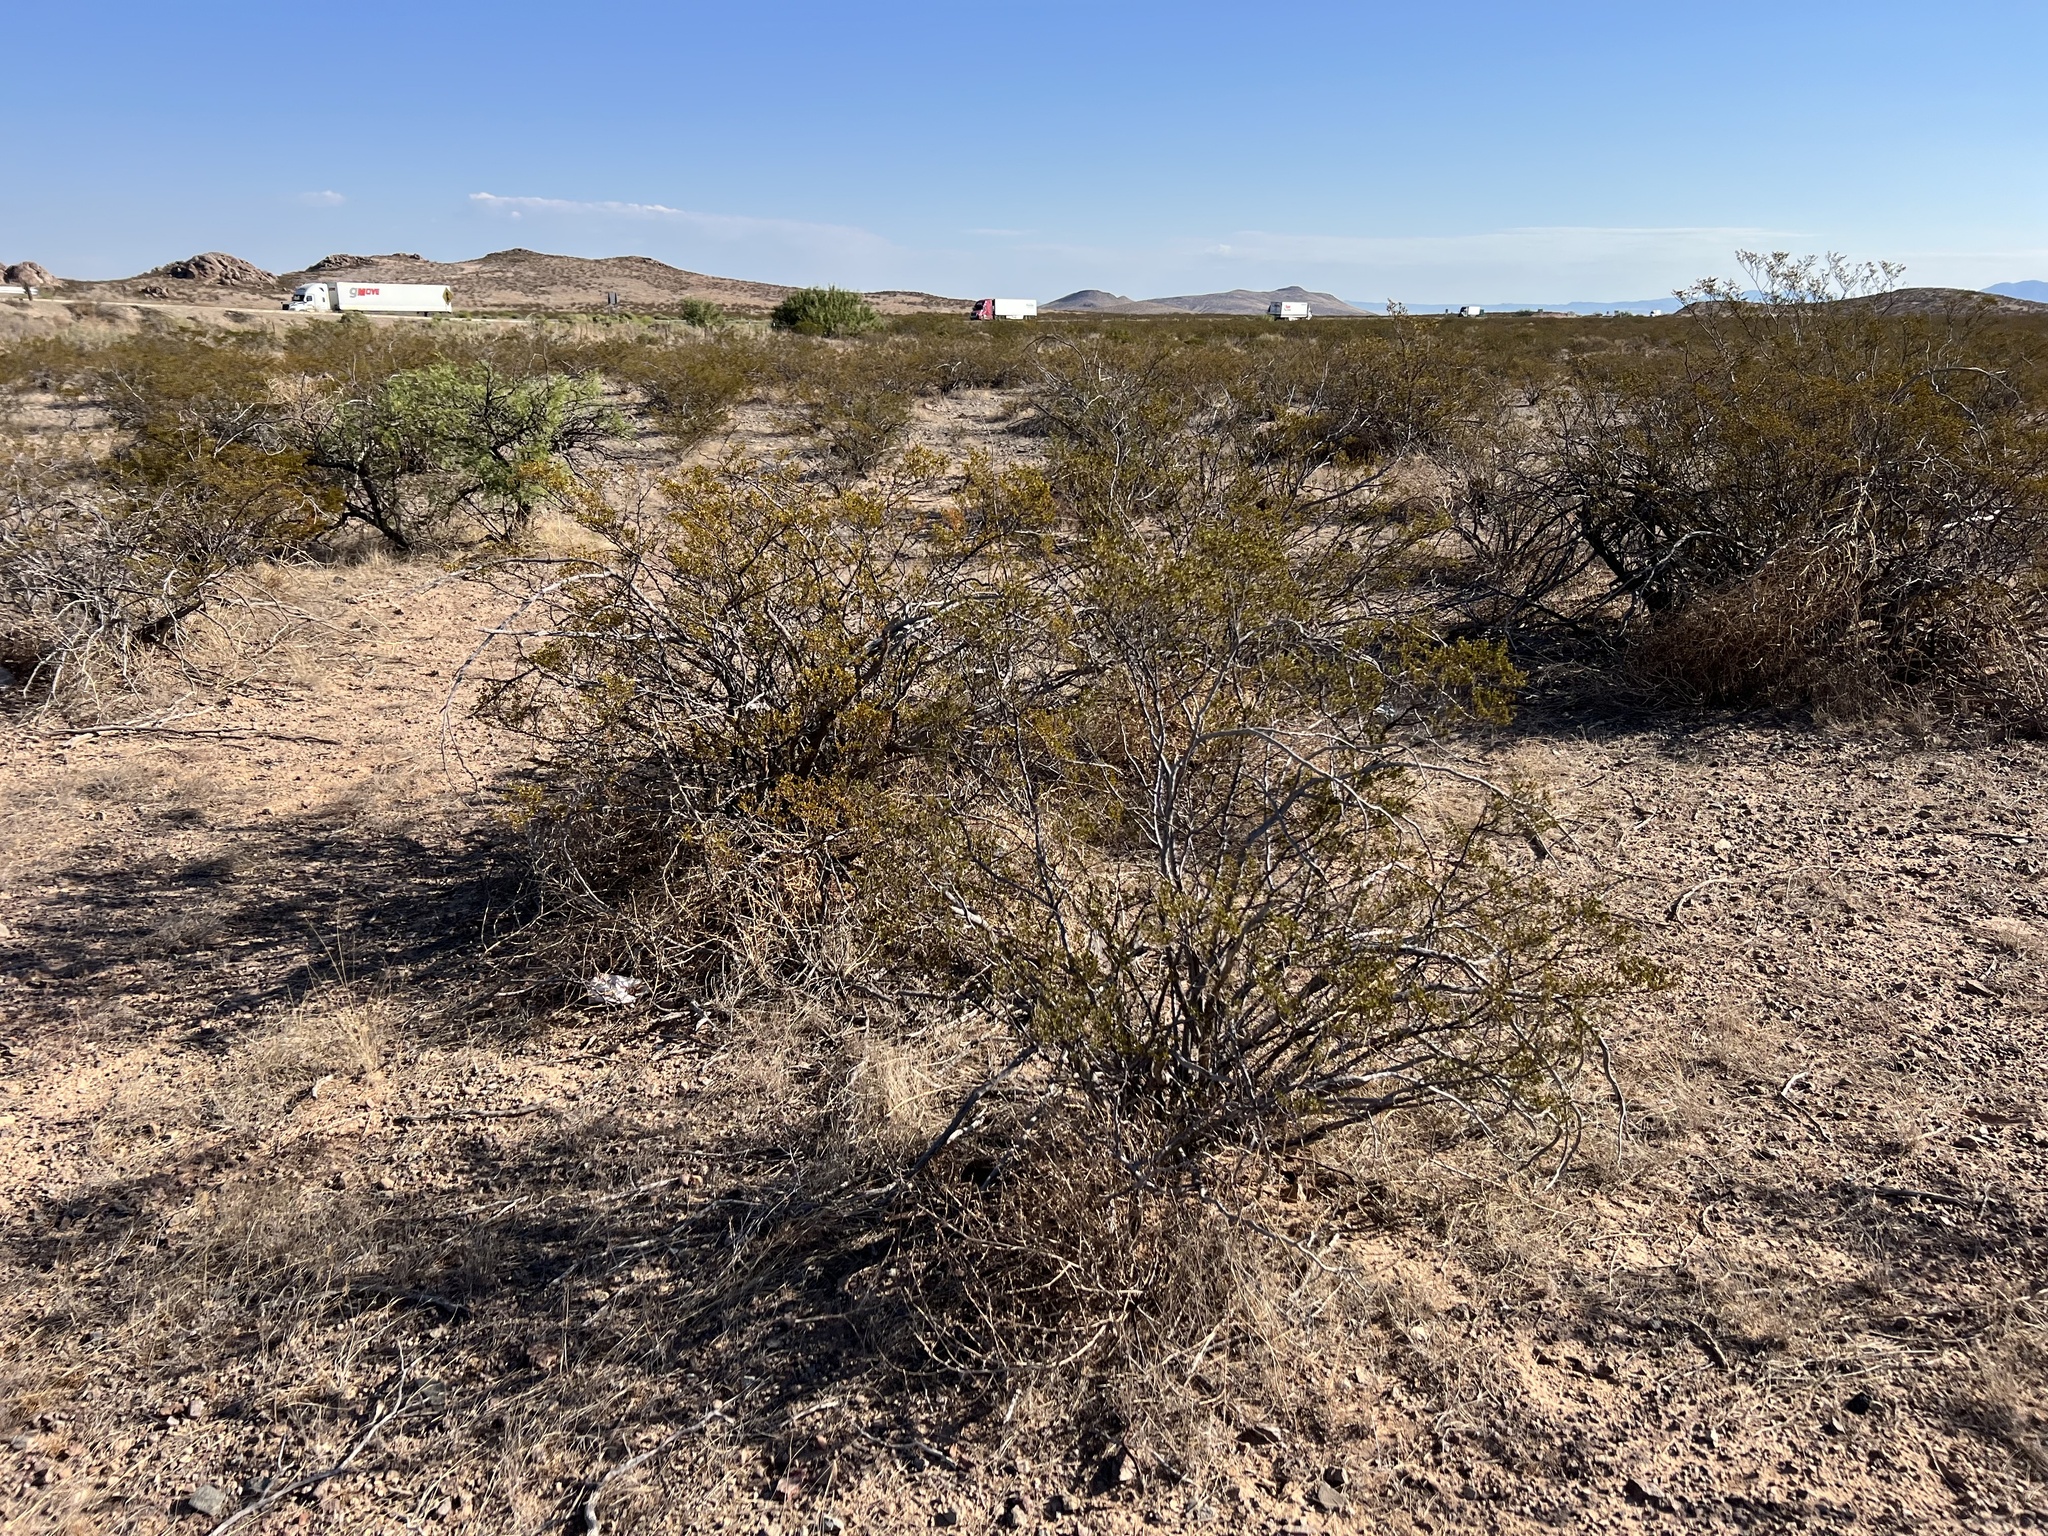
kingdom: Plantae
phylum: Tracheophyta
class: Magnoliopsida
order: Zygophyllales
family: Zygophyllaceae
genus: Larrea
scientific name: Larrea tridentata
